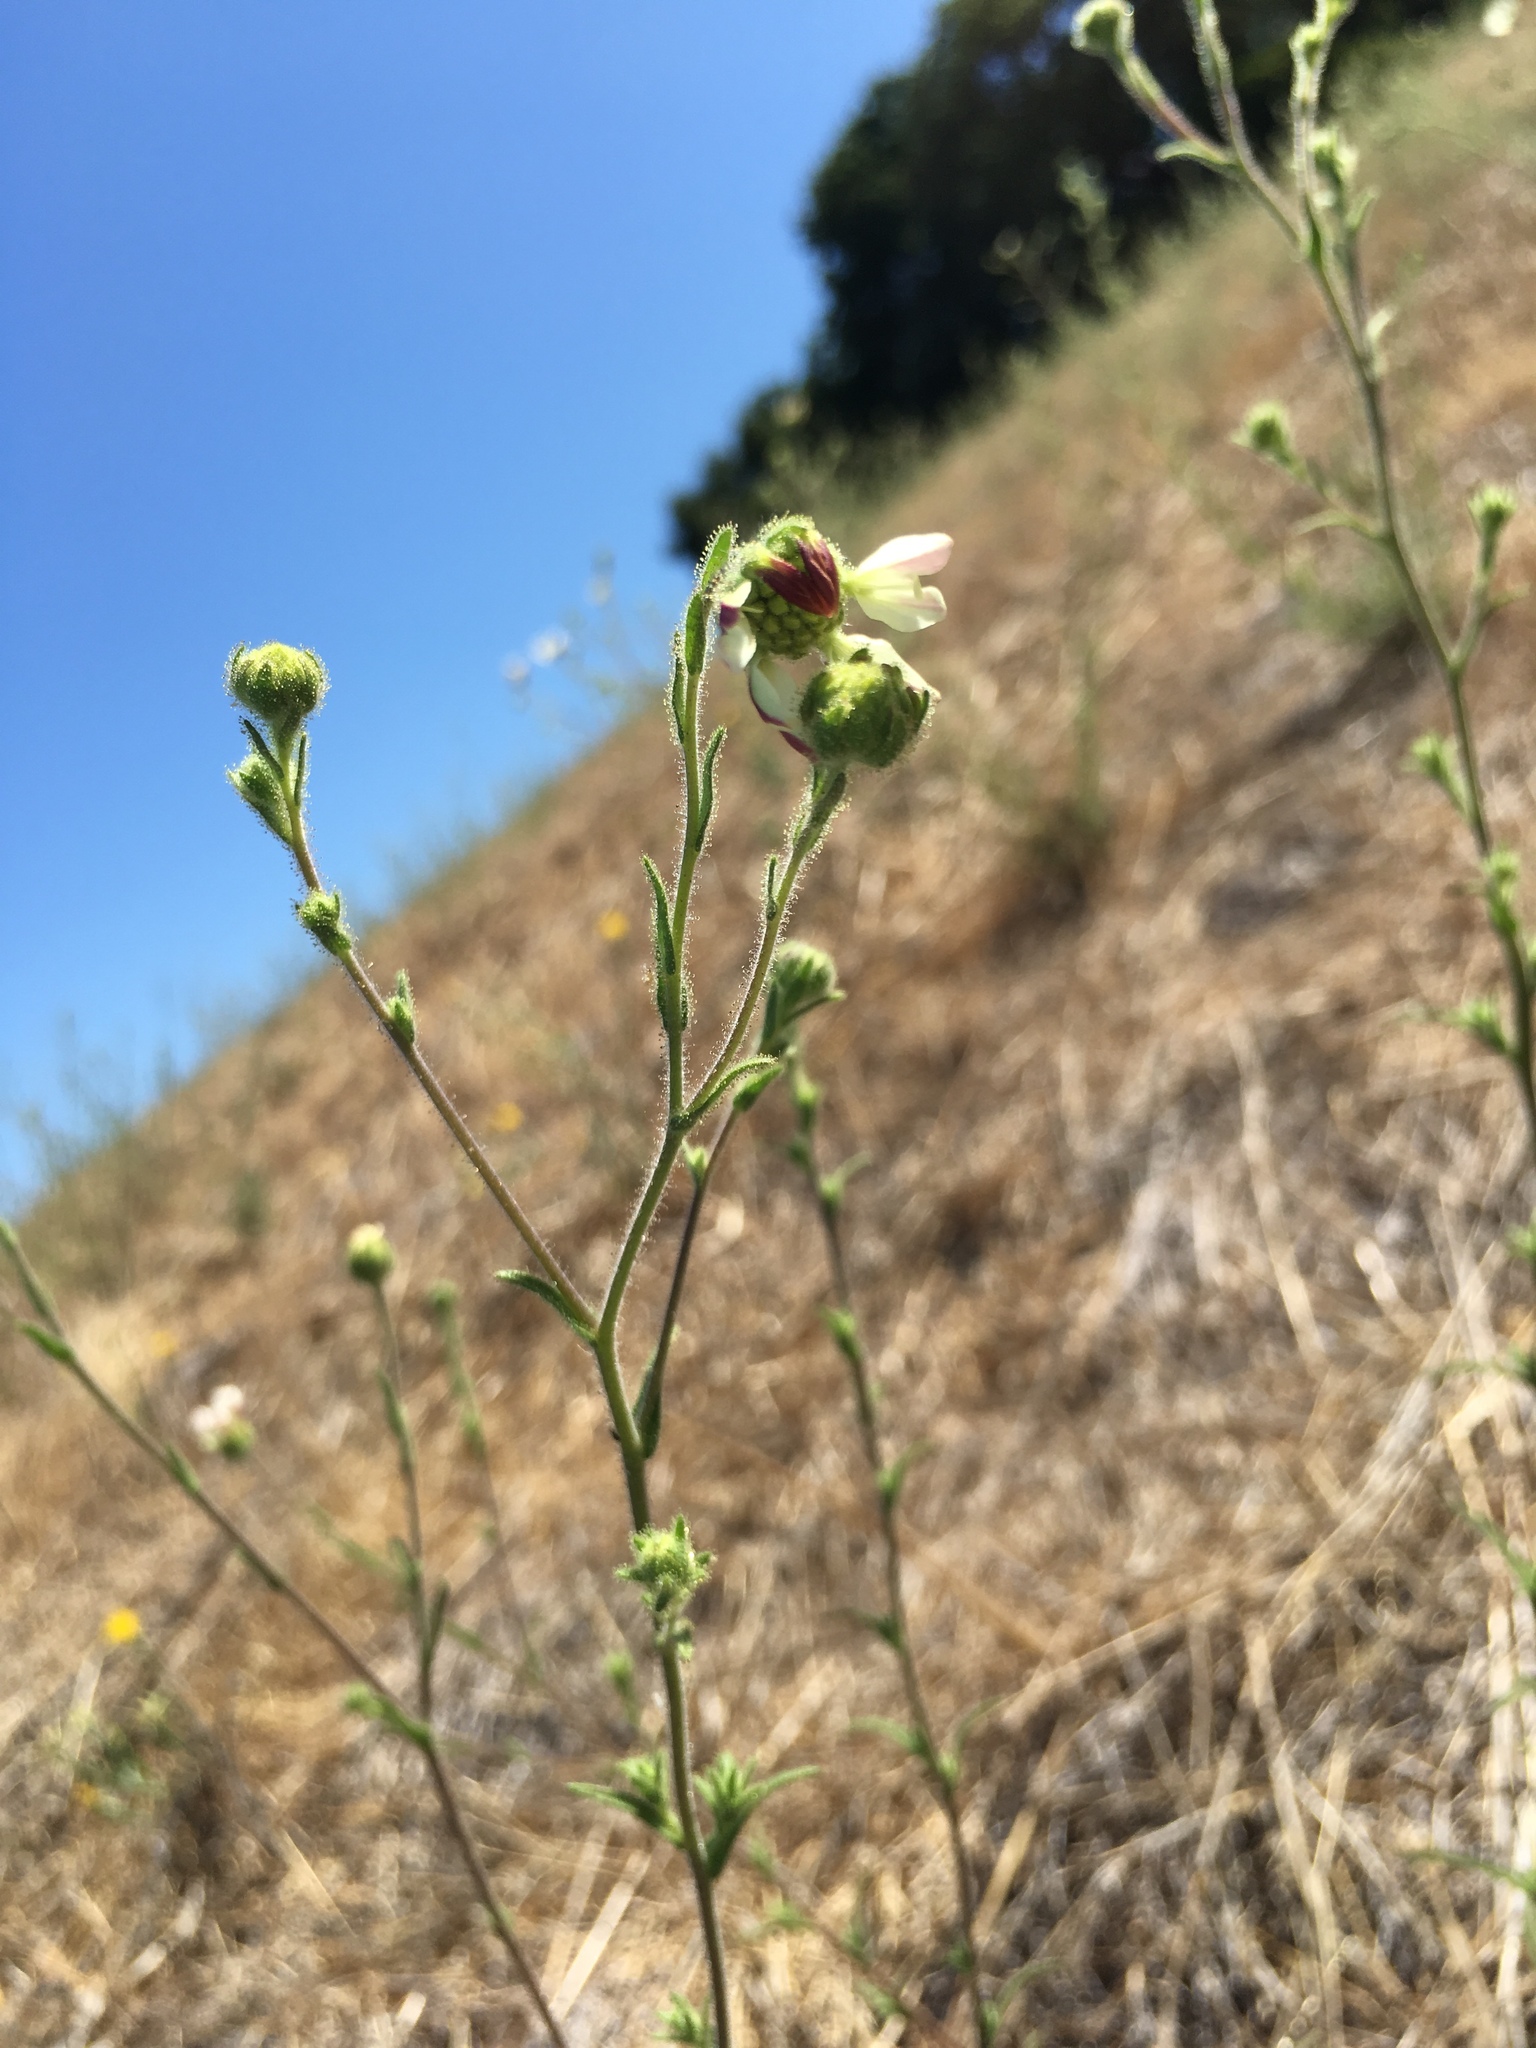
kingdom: Plantae
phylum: Tracheophyta
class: Magnoliopsida
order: Asterales
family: Asteraceae
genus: Hemizonia
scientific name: Hemizonia congesta
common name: Hayfield tarweed
